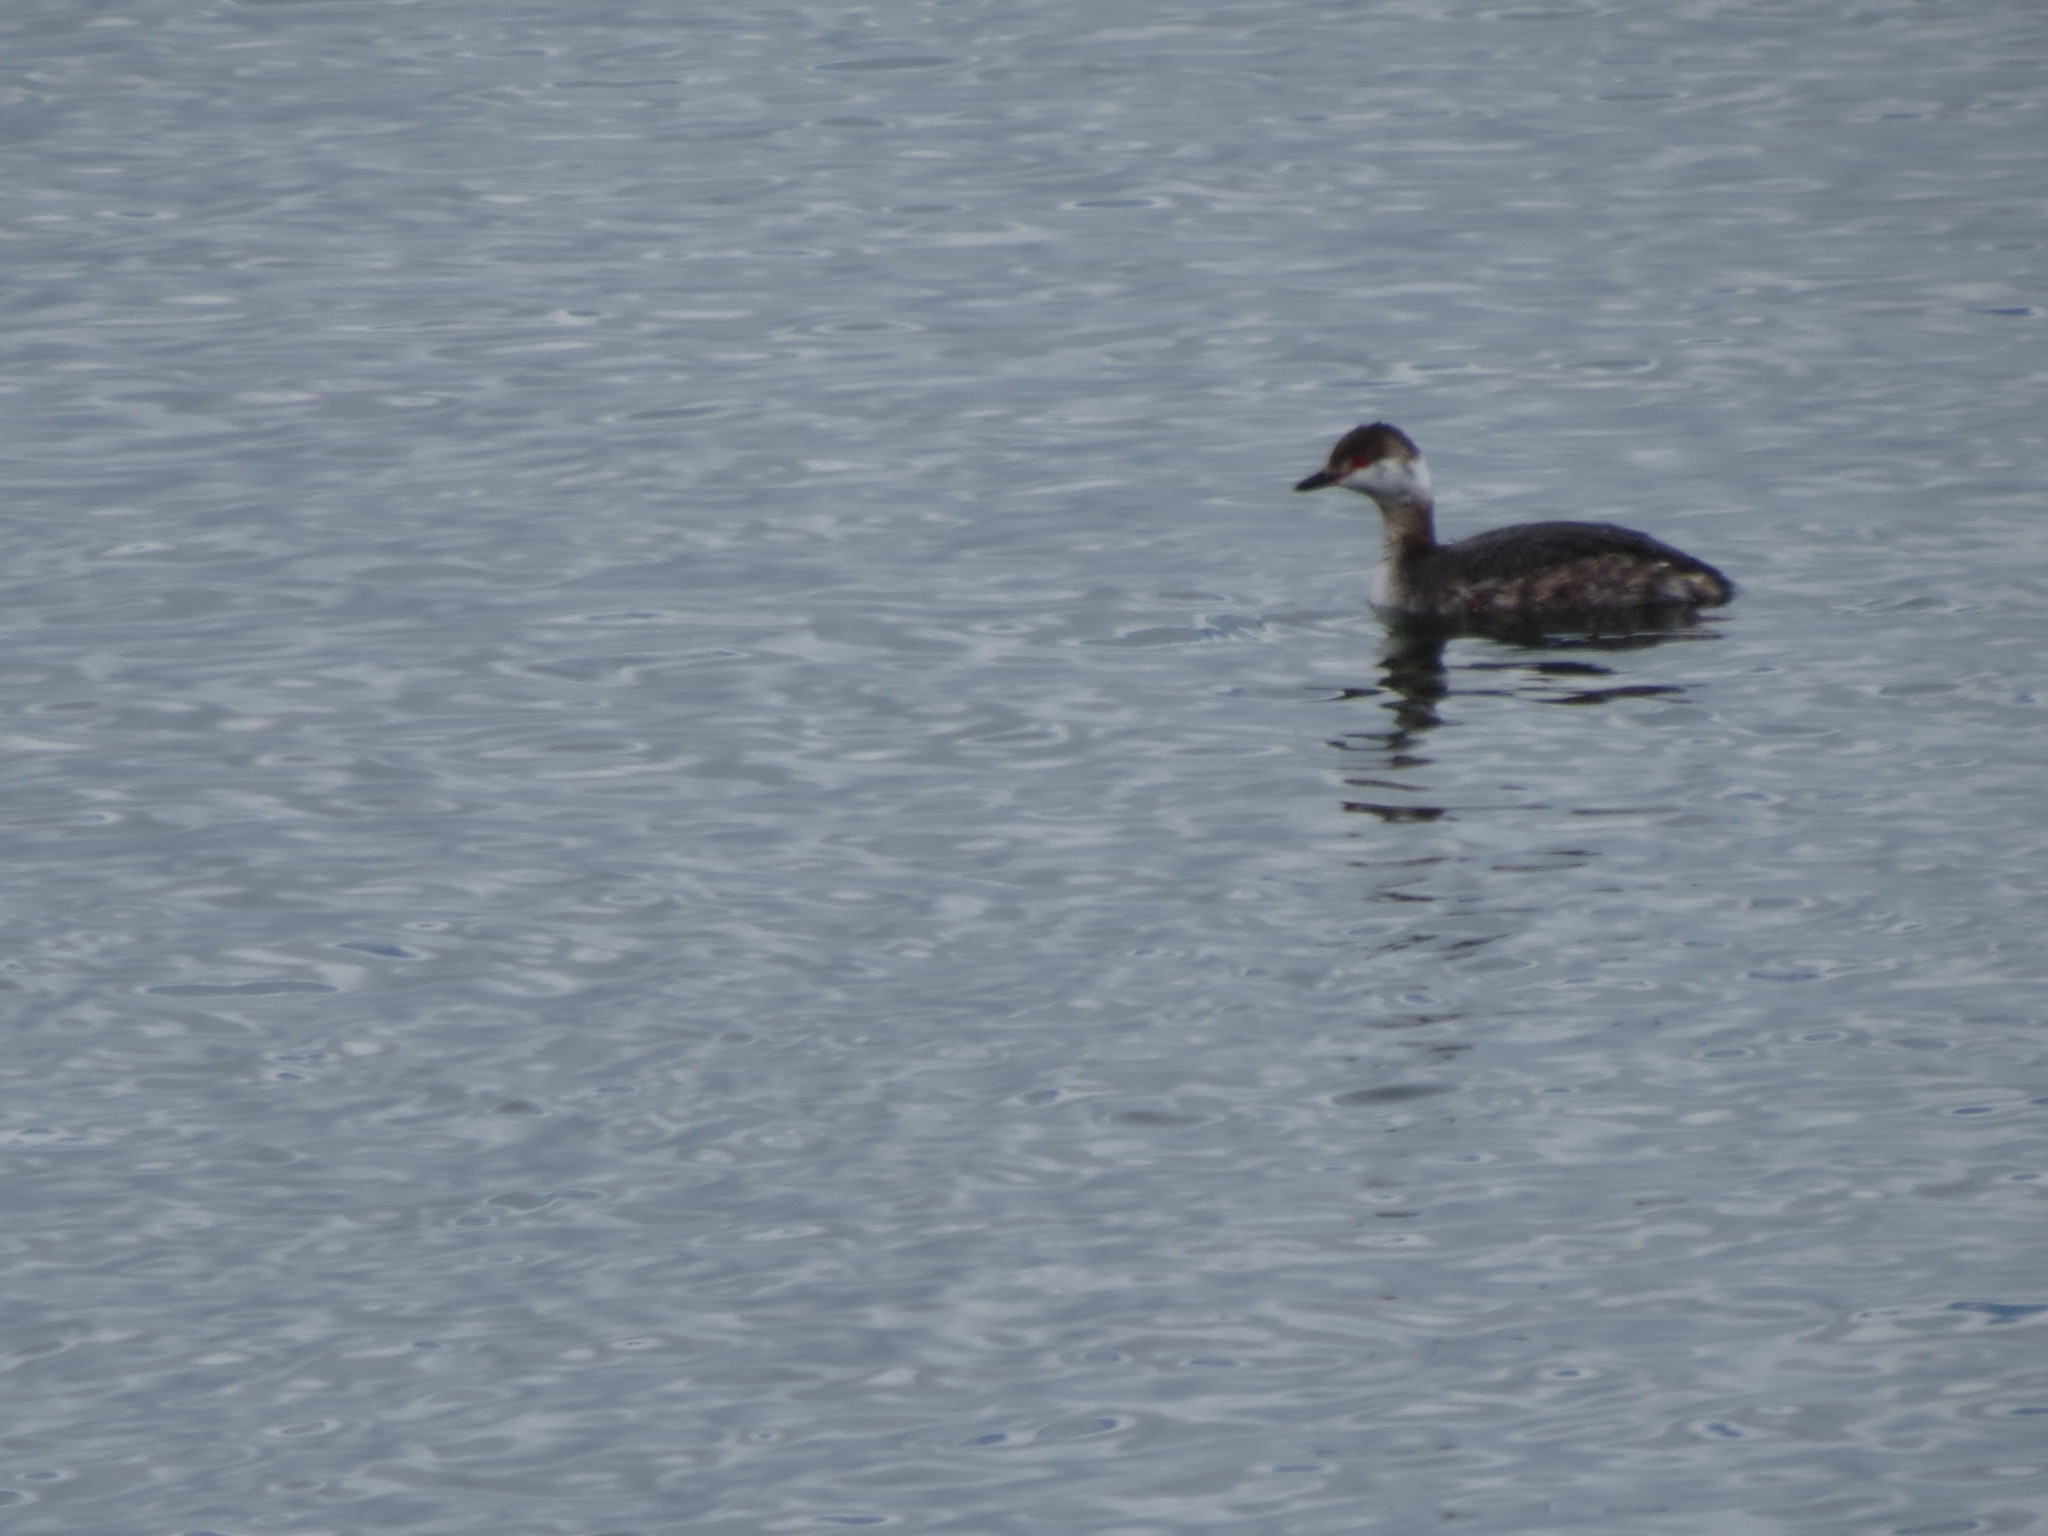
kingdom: Animalia
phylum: Chordata
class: Aves
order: Podicipediformes
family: Podicipedidae
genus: Podiceps
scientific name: Podiceps auritus
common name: Horned grebe
